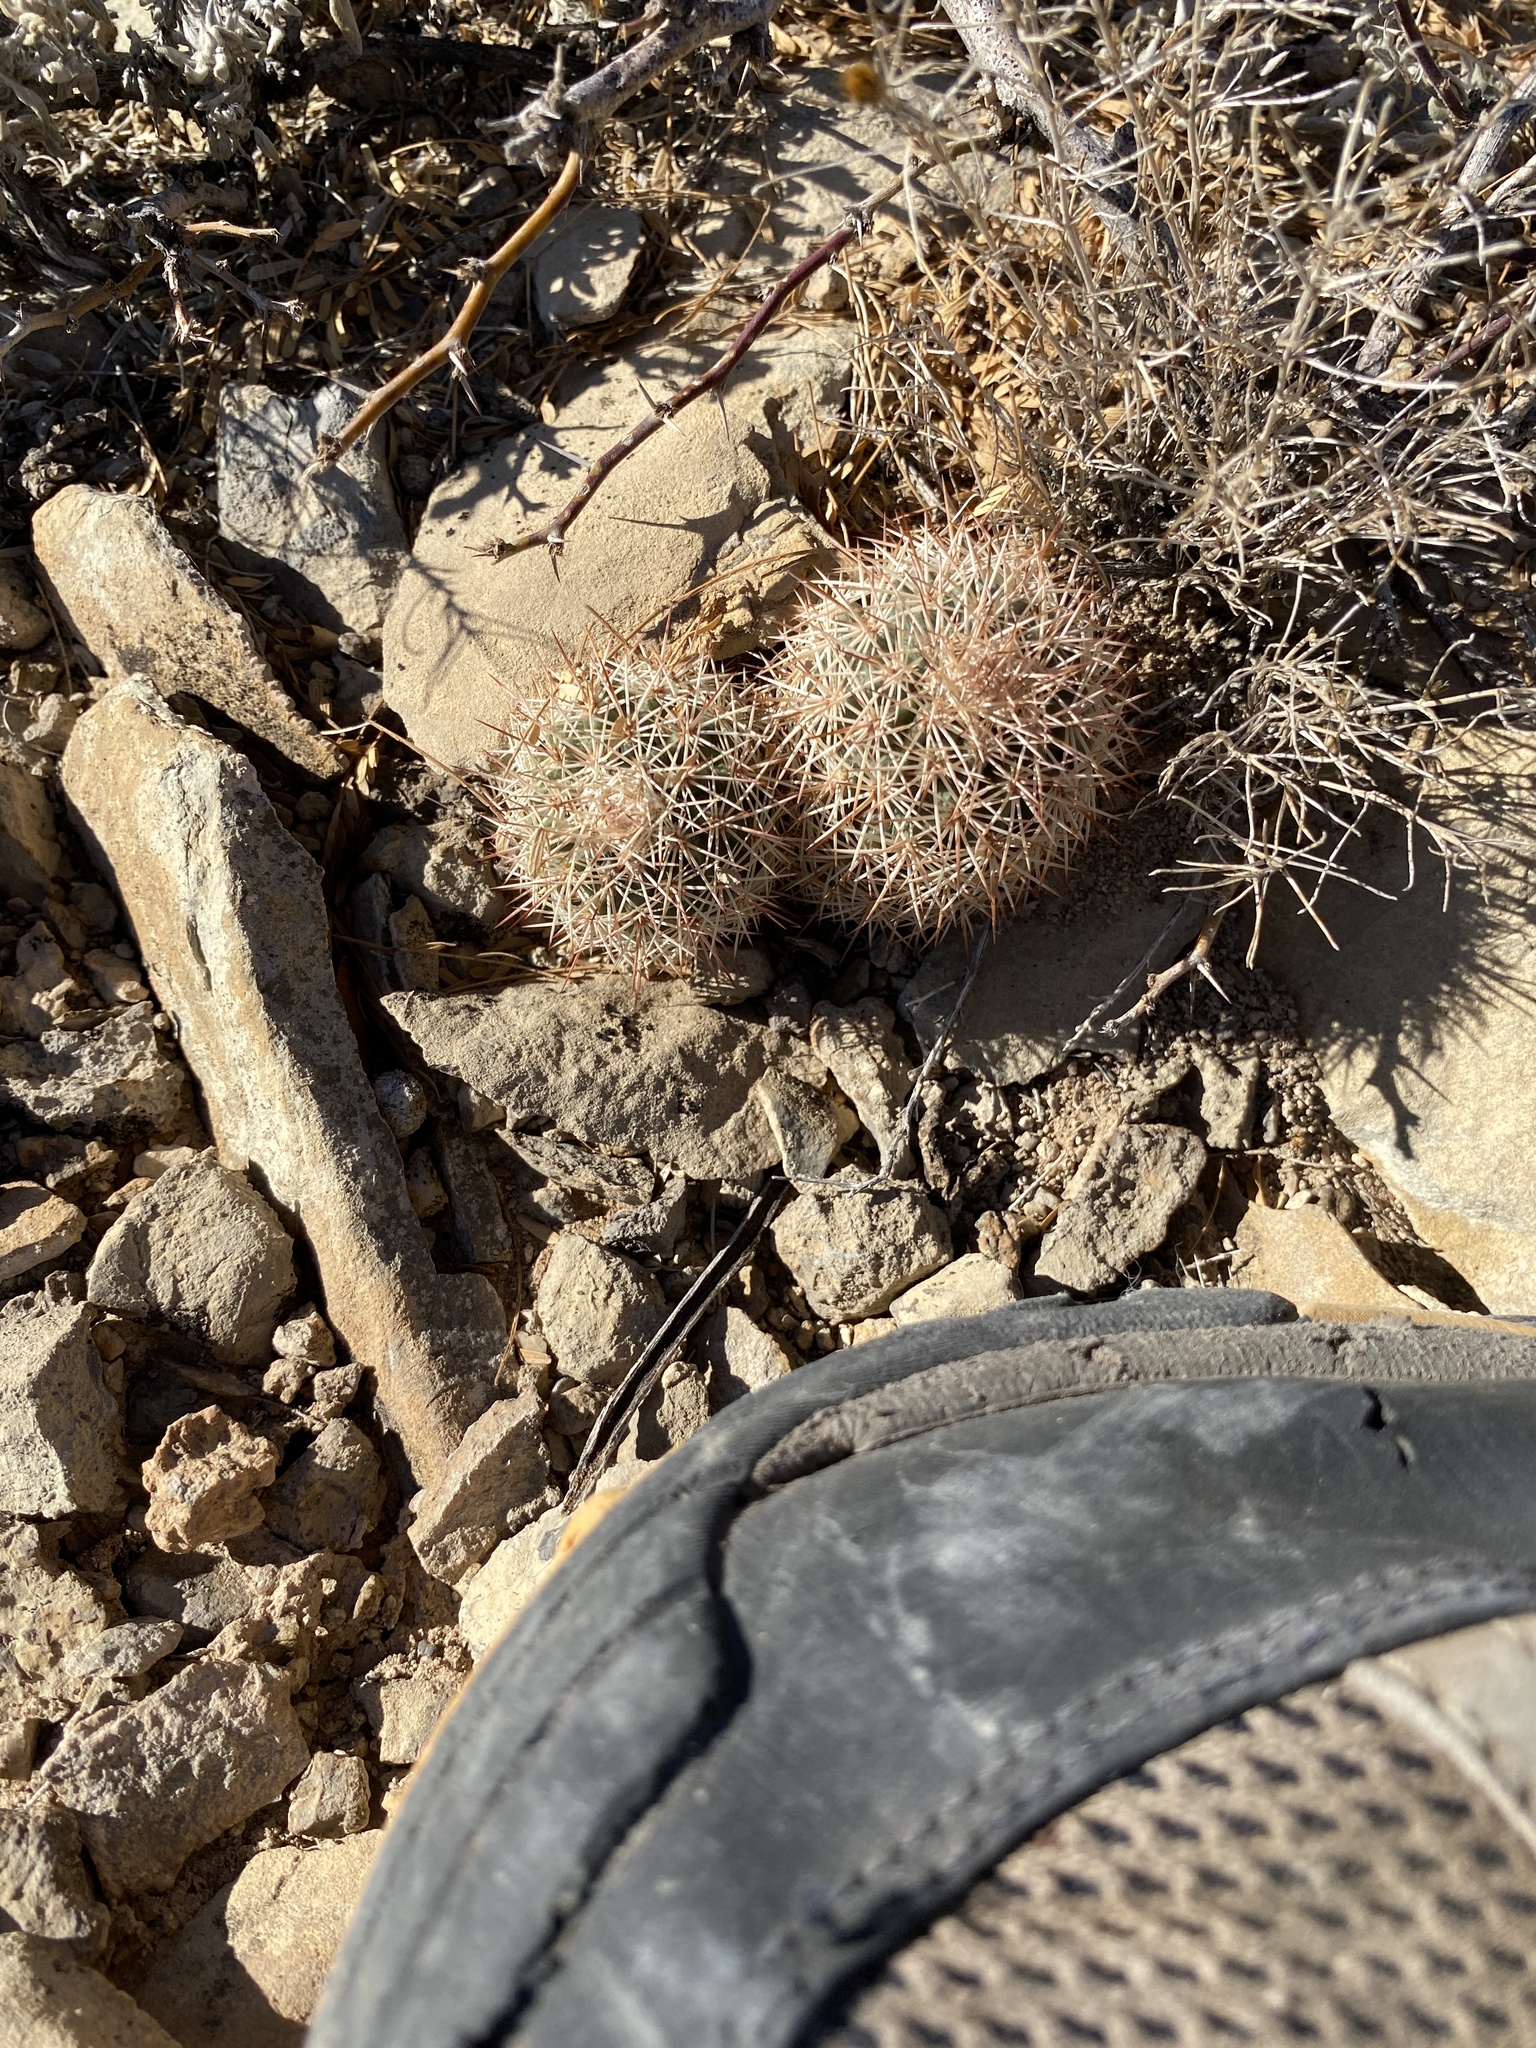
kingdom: Plantae
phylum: Tracheophyta
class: Magnoliopsida
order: Caryophyllales
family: Cactaceae
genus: Echinocereus
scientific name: Echinocereus dasyacanthus
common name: Spiny hedgehog cactus
